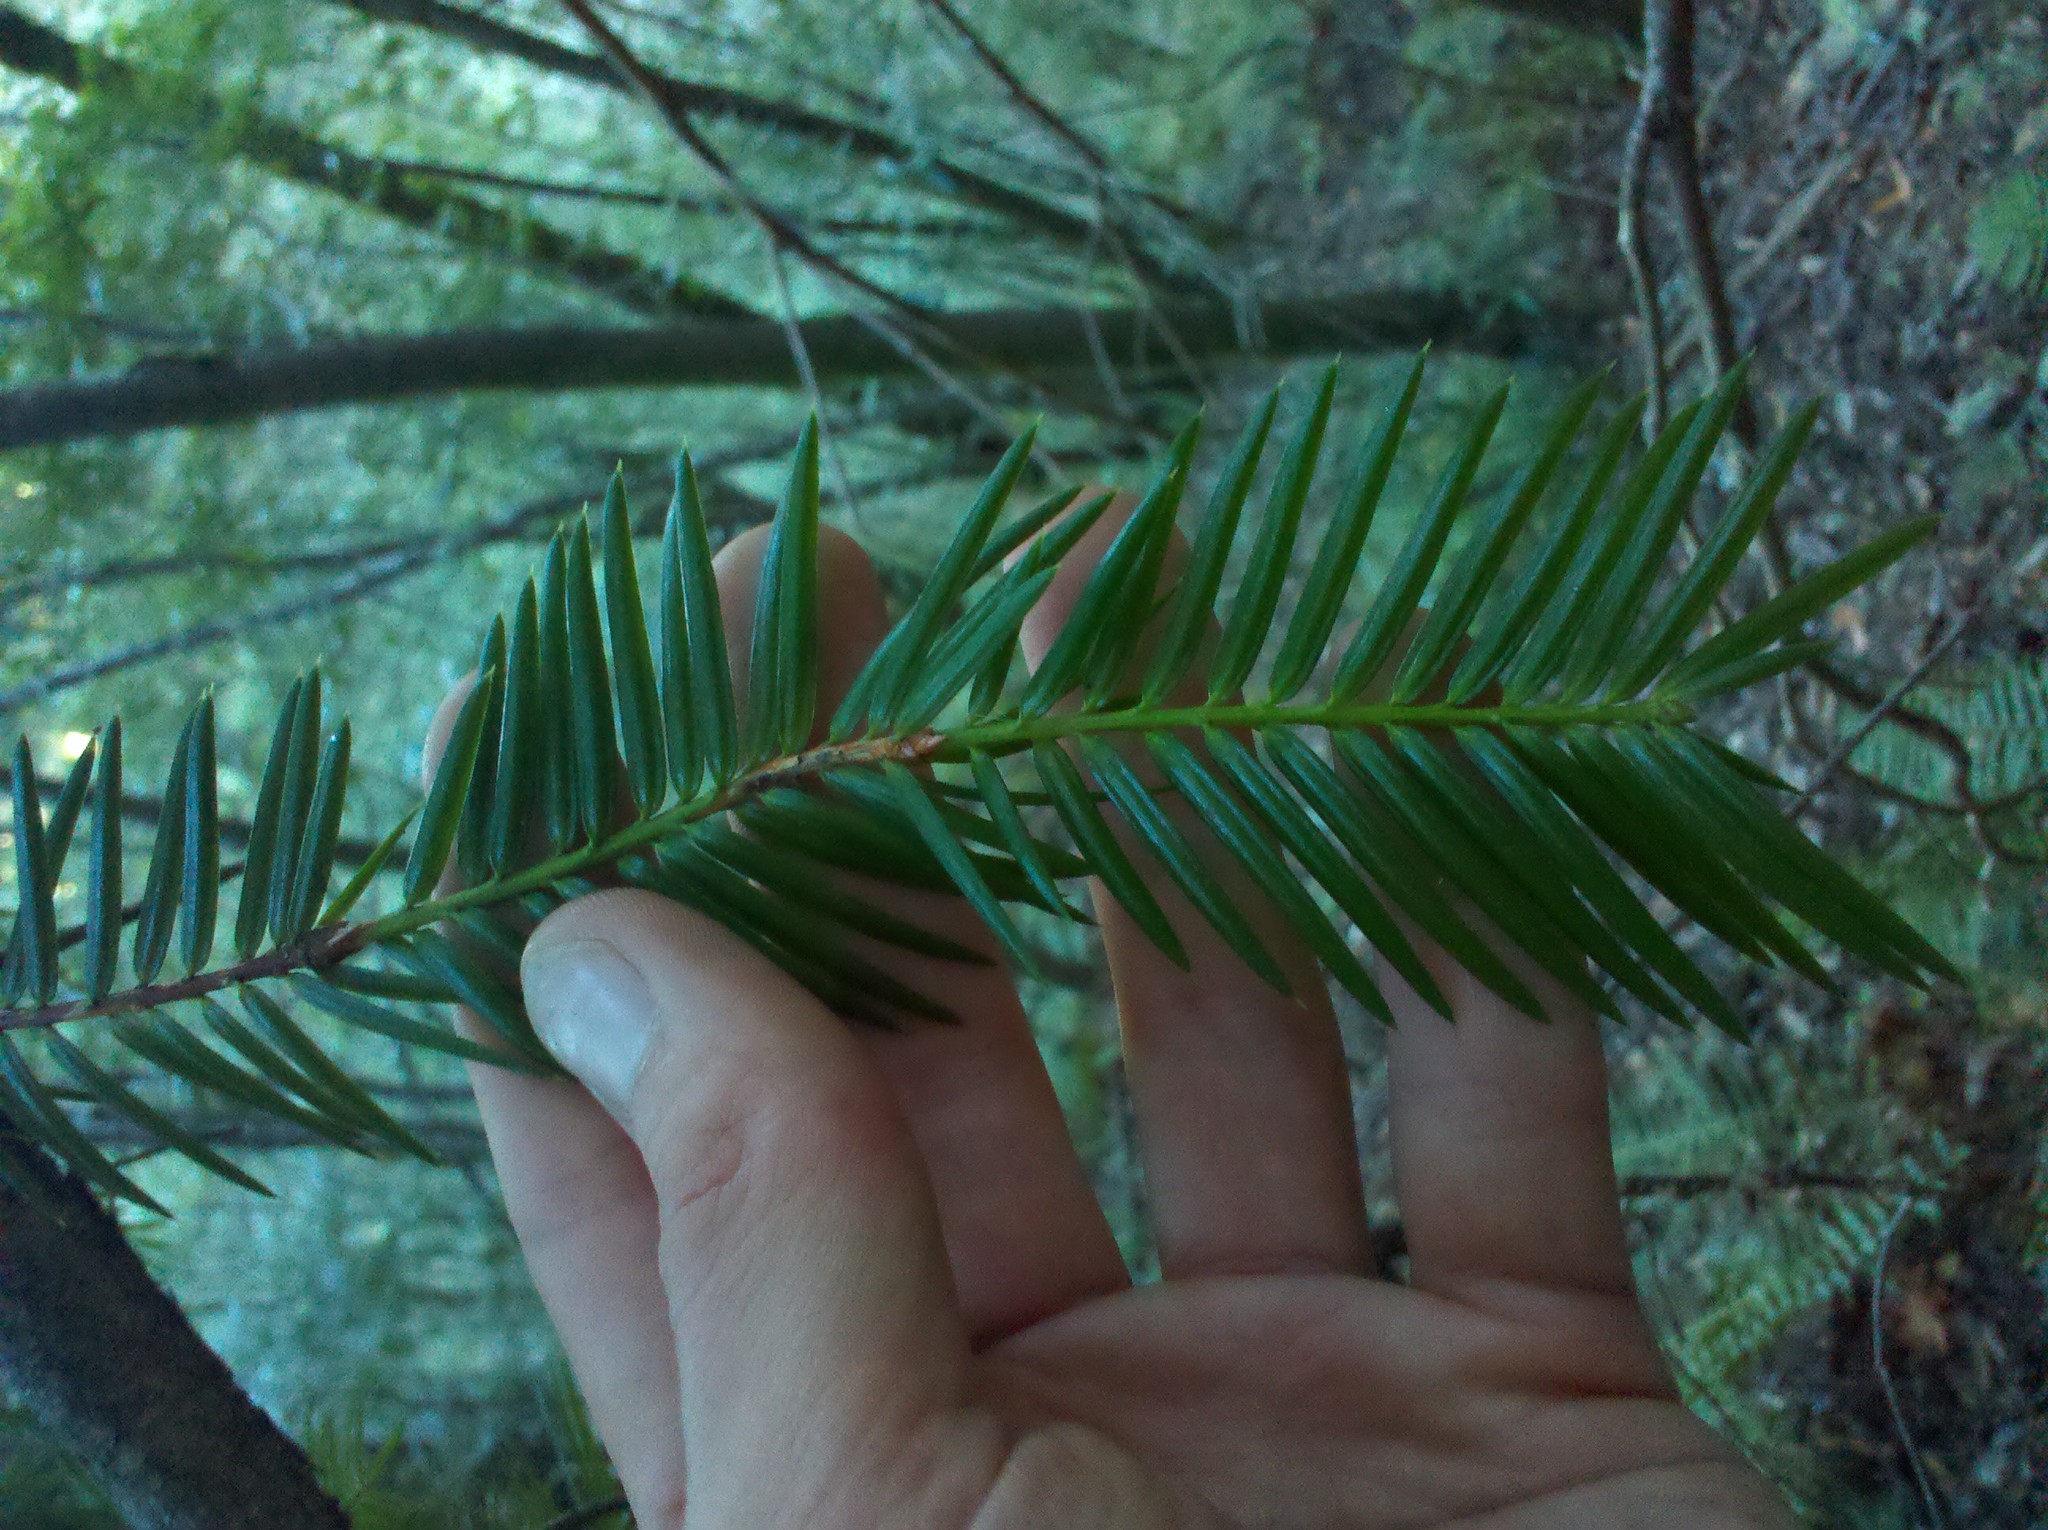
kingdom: Plantae
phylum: Tracheophyta
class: Pinopsida
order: Pinales
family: Taxaceae
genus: Torreya
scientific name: Torreya californica
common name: California torreya
